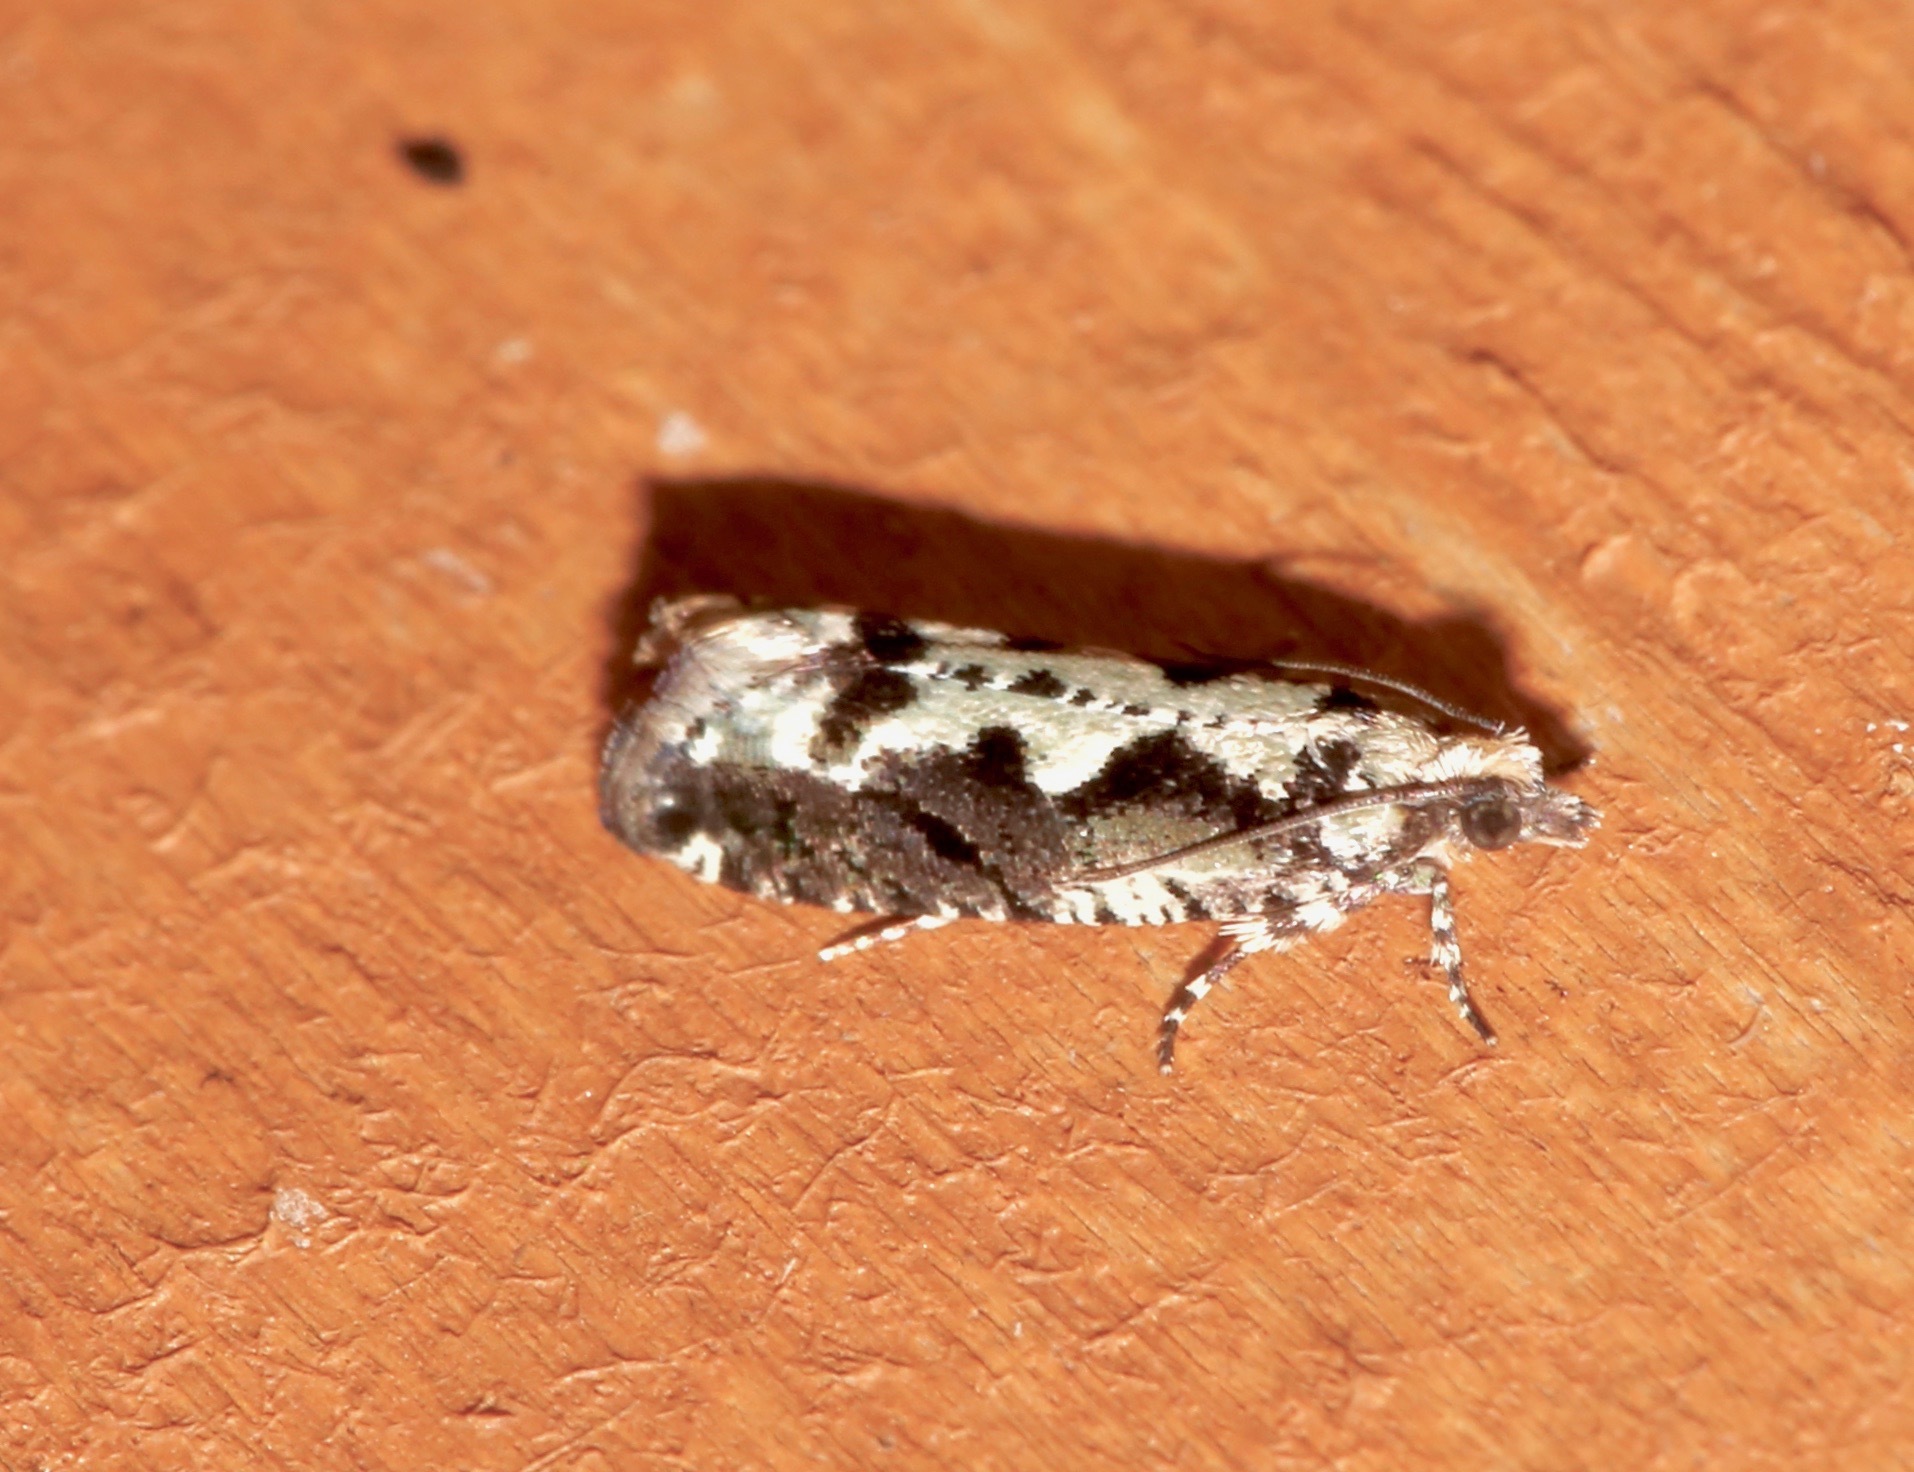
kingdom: Animalia
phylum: Arthropoda
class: Insecta
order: Lepidoptera
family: Tortricidae
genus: Chimoptesis
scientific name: Chimoptesis pennsylvaniana
